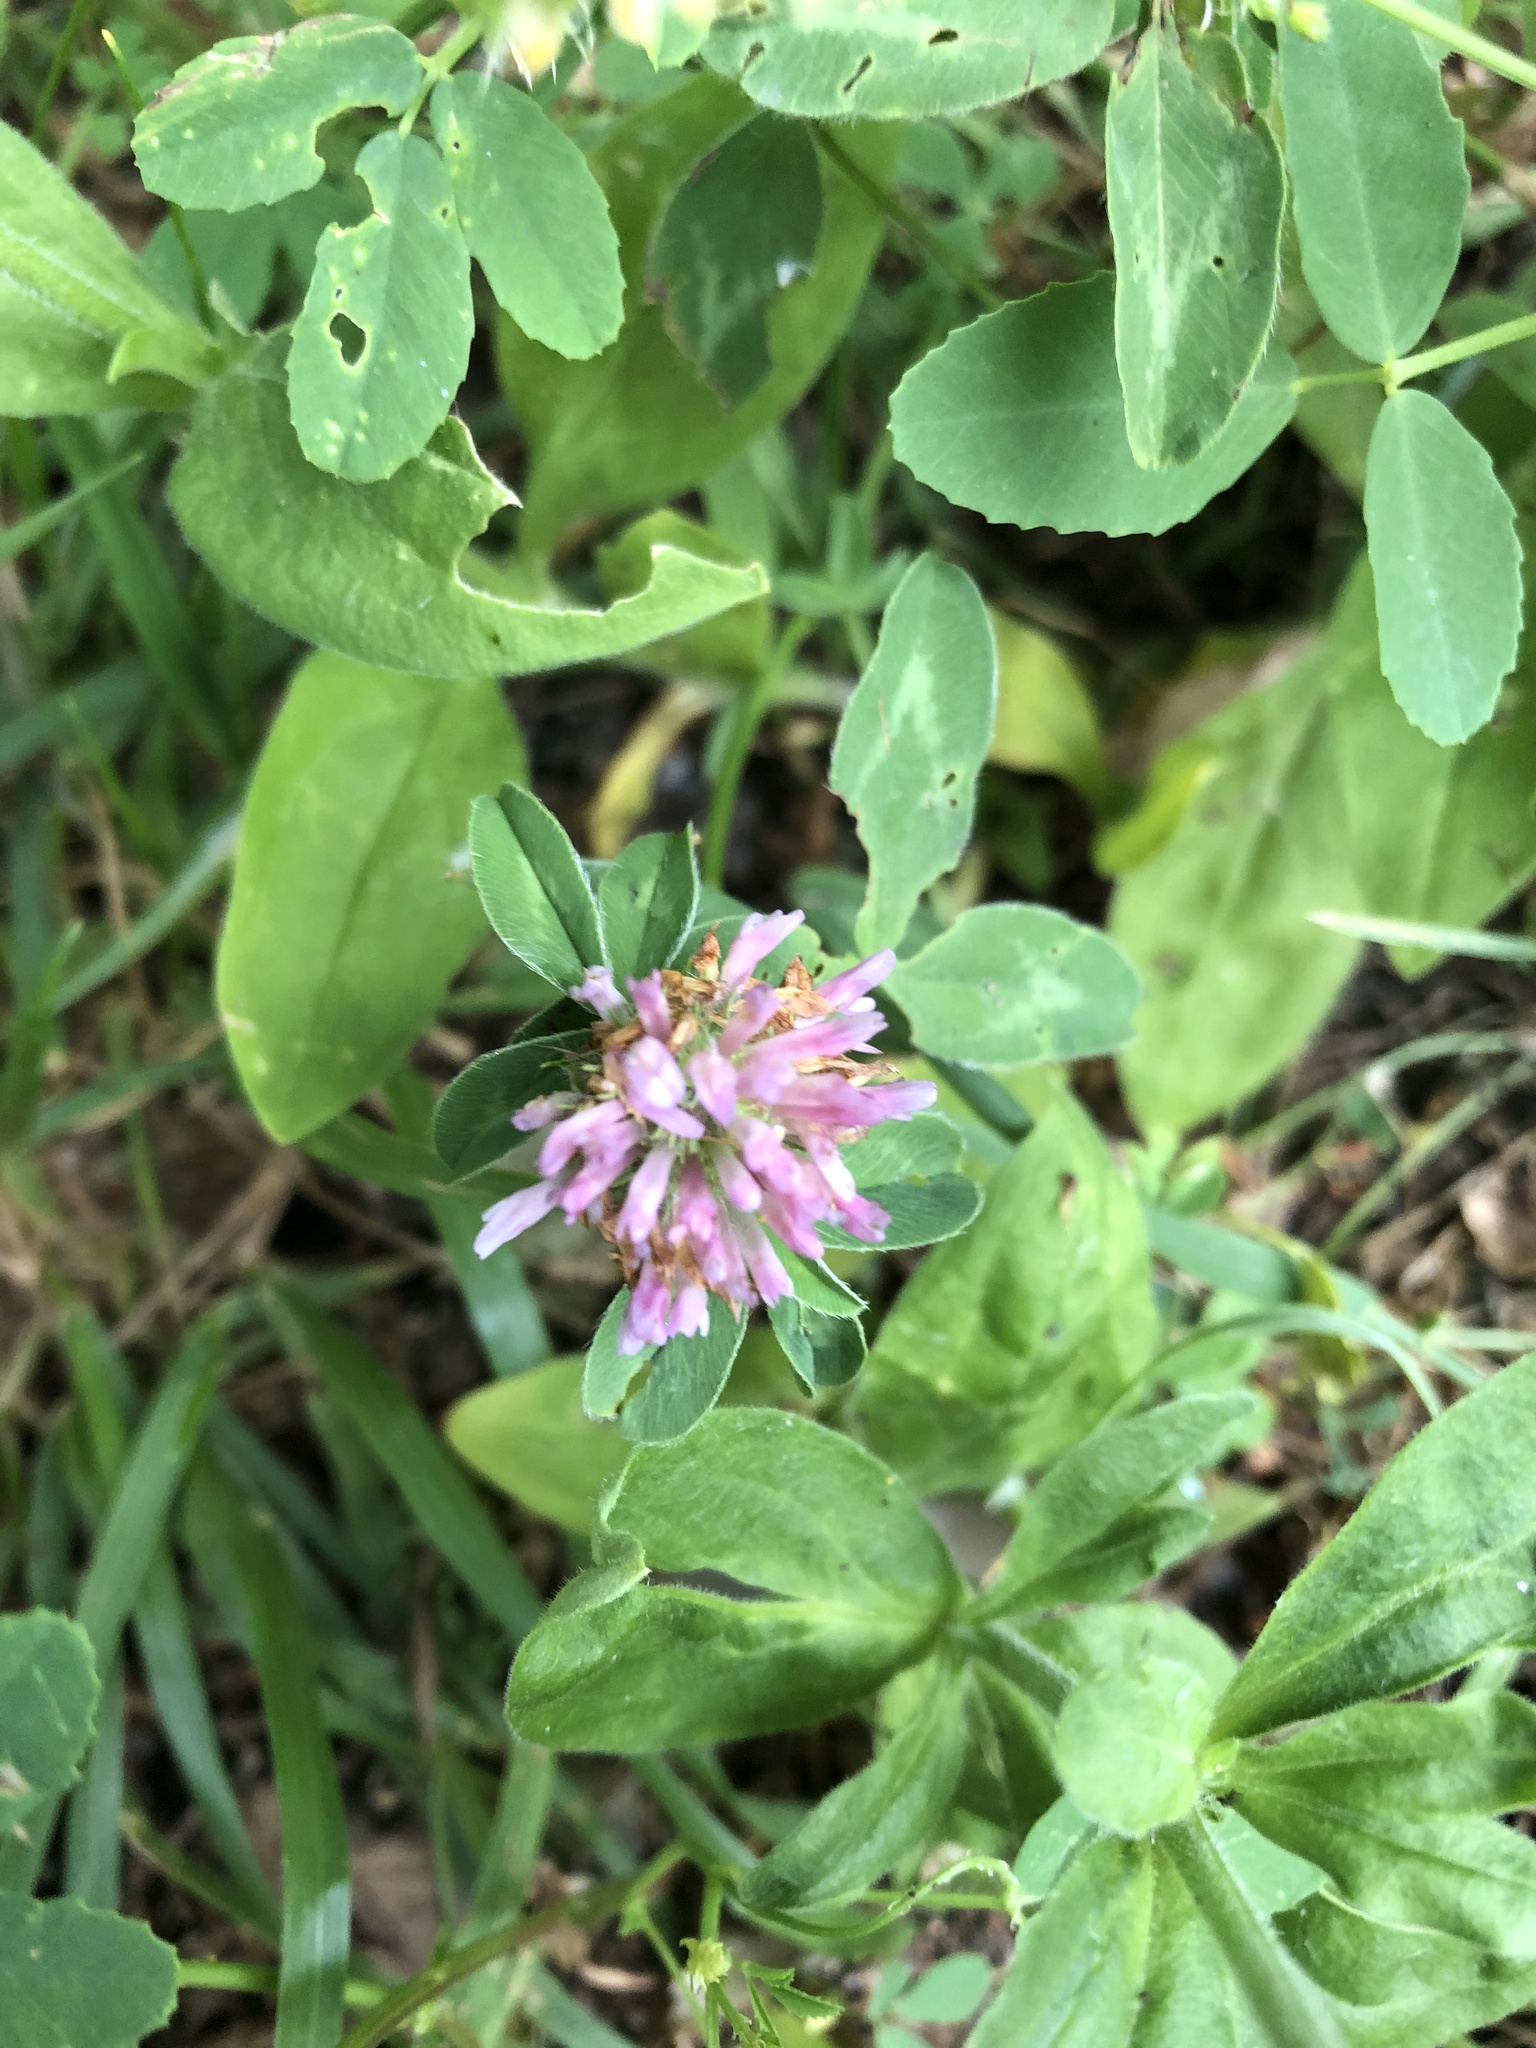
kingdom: Plantae
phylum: Tracheophyta
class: Magnoliopsida
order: Fabales
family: Fabaceae
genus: Trifolium
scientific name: Trifolium pratense
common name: Red clover
